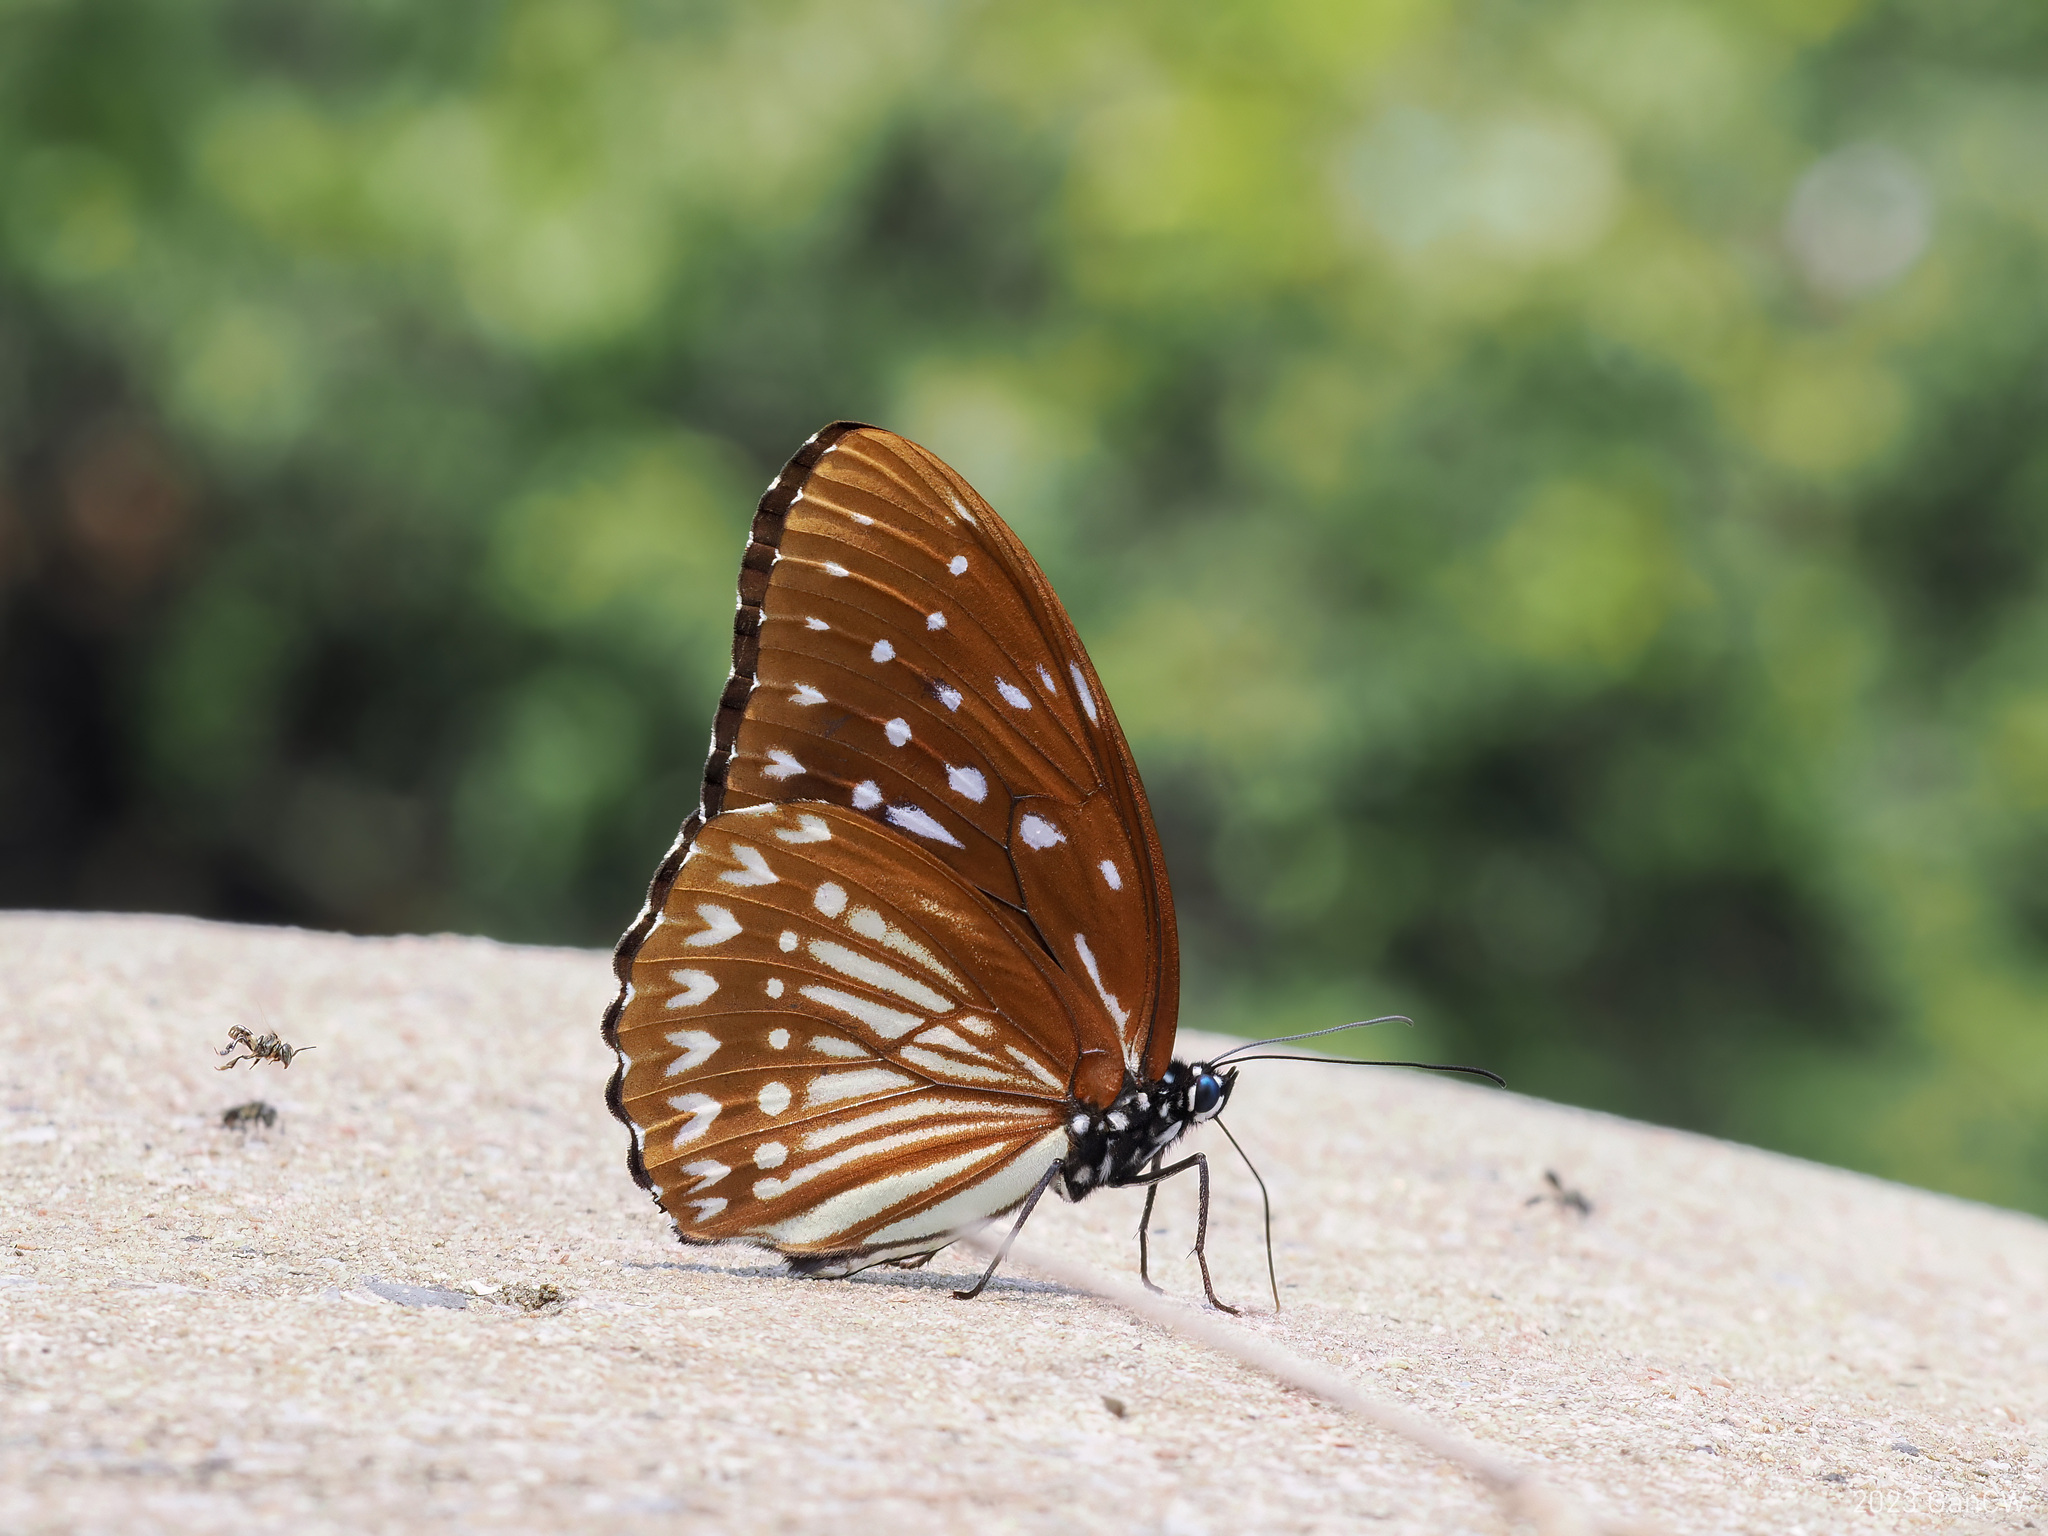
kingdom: Animalia
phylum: Arthropoda
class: Insecta
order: Lepidoptera
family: Nymphalidae
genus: Penthema
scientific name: Penthema darlisa
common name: Three-coloured kaiser
